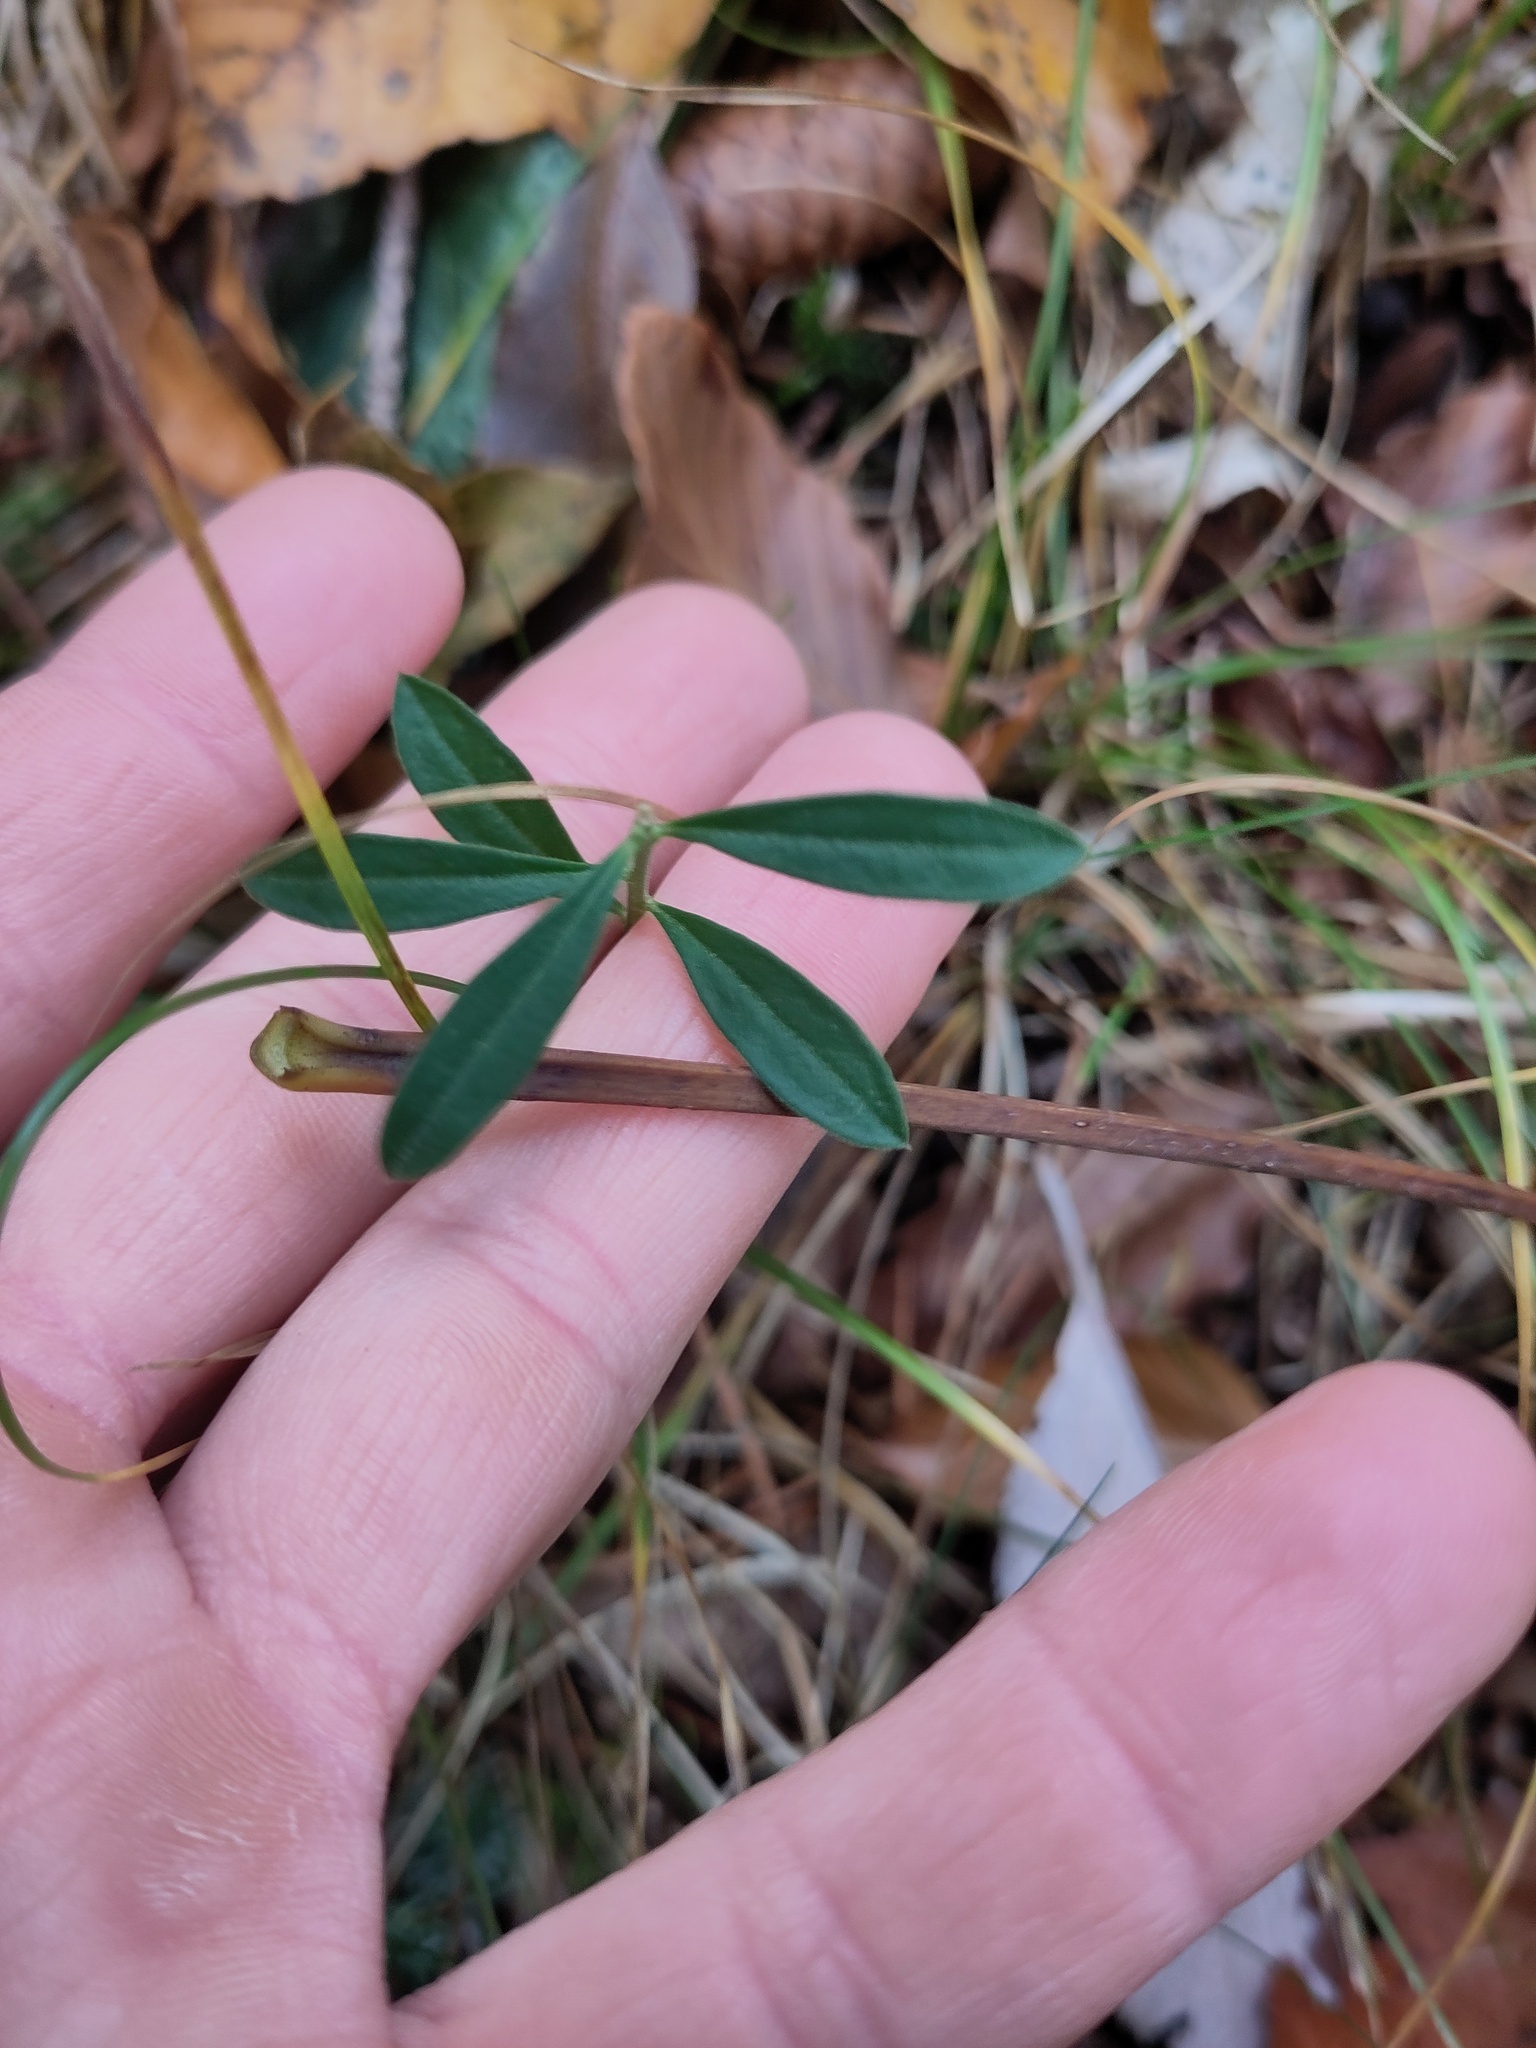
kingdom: Plantae
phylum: Tracheophyta
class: Magnoliopsida
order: Fabales
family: Polygalaceae
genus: Polygaloides
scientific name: Polygaloides chamaebuxus
